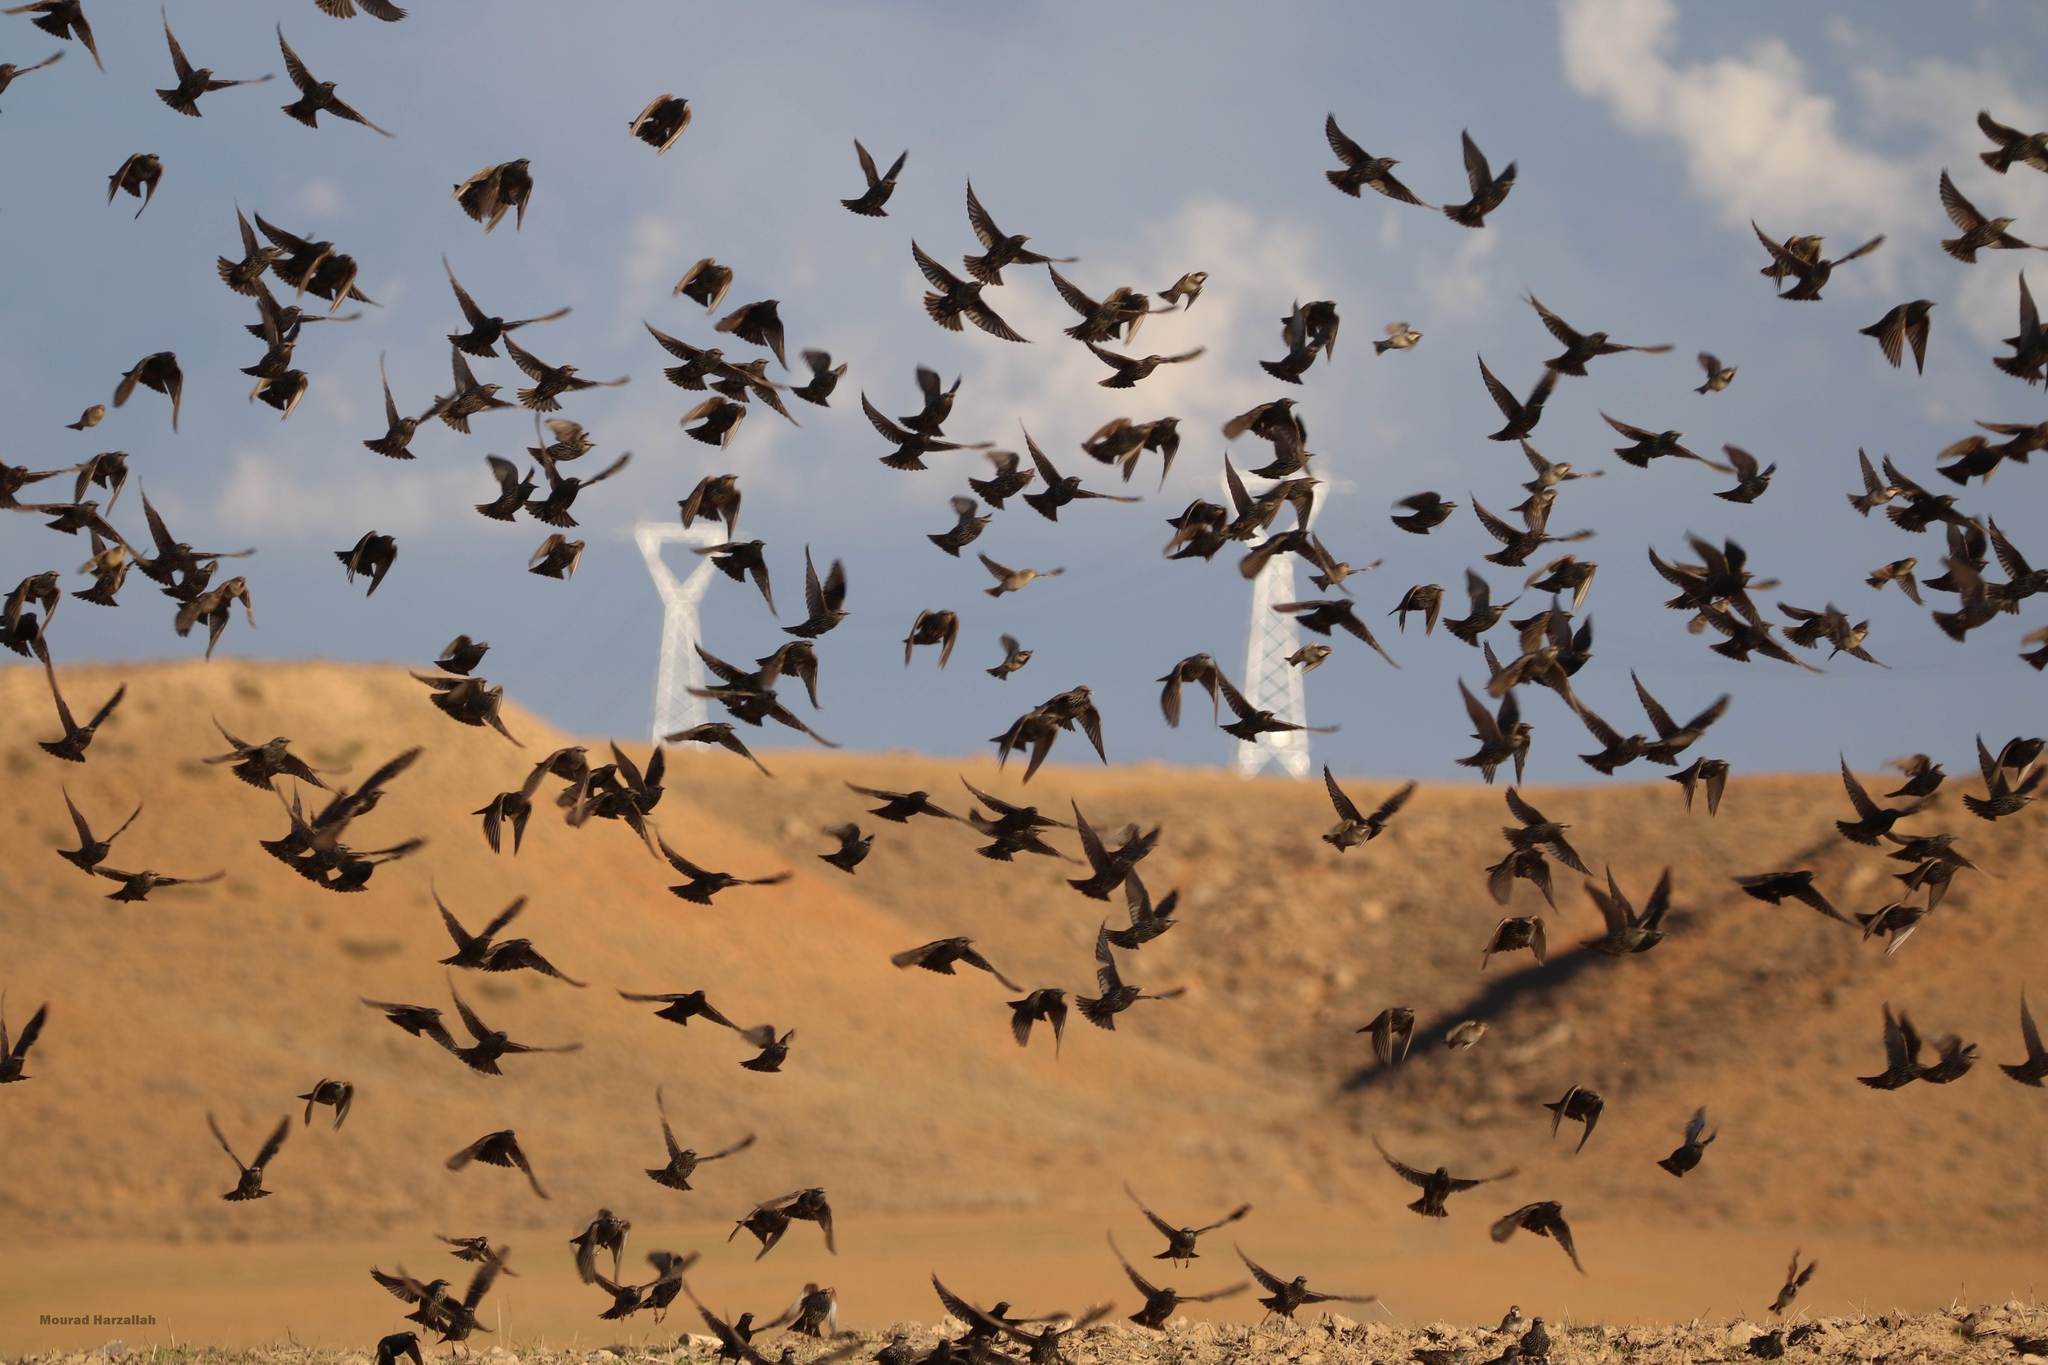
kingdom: Animalia
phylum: Chordata
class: Aves
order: Passeriformes
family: Sturnidae
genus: Sturnus
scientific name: Sturnus vulgaris
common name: Common starling
